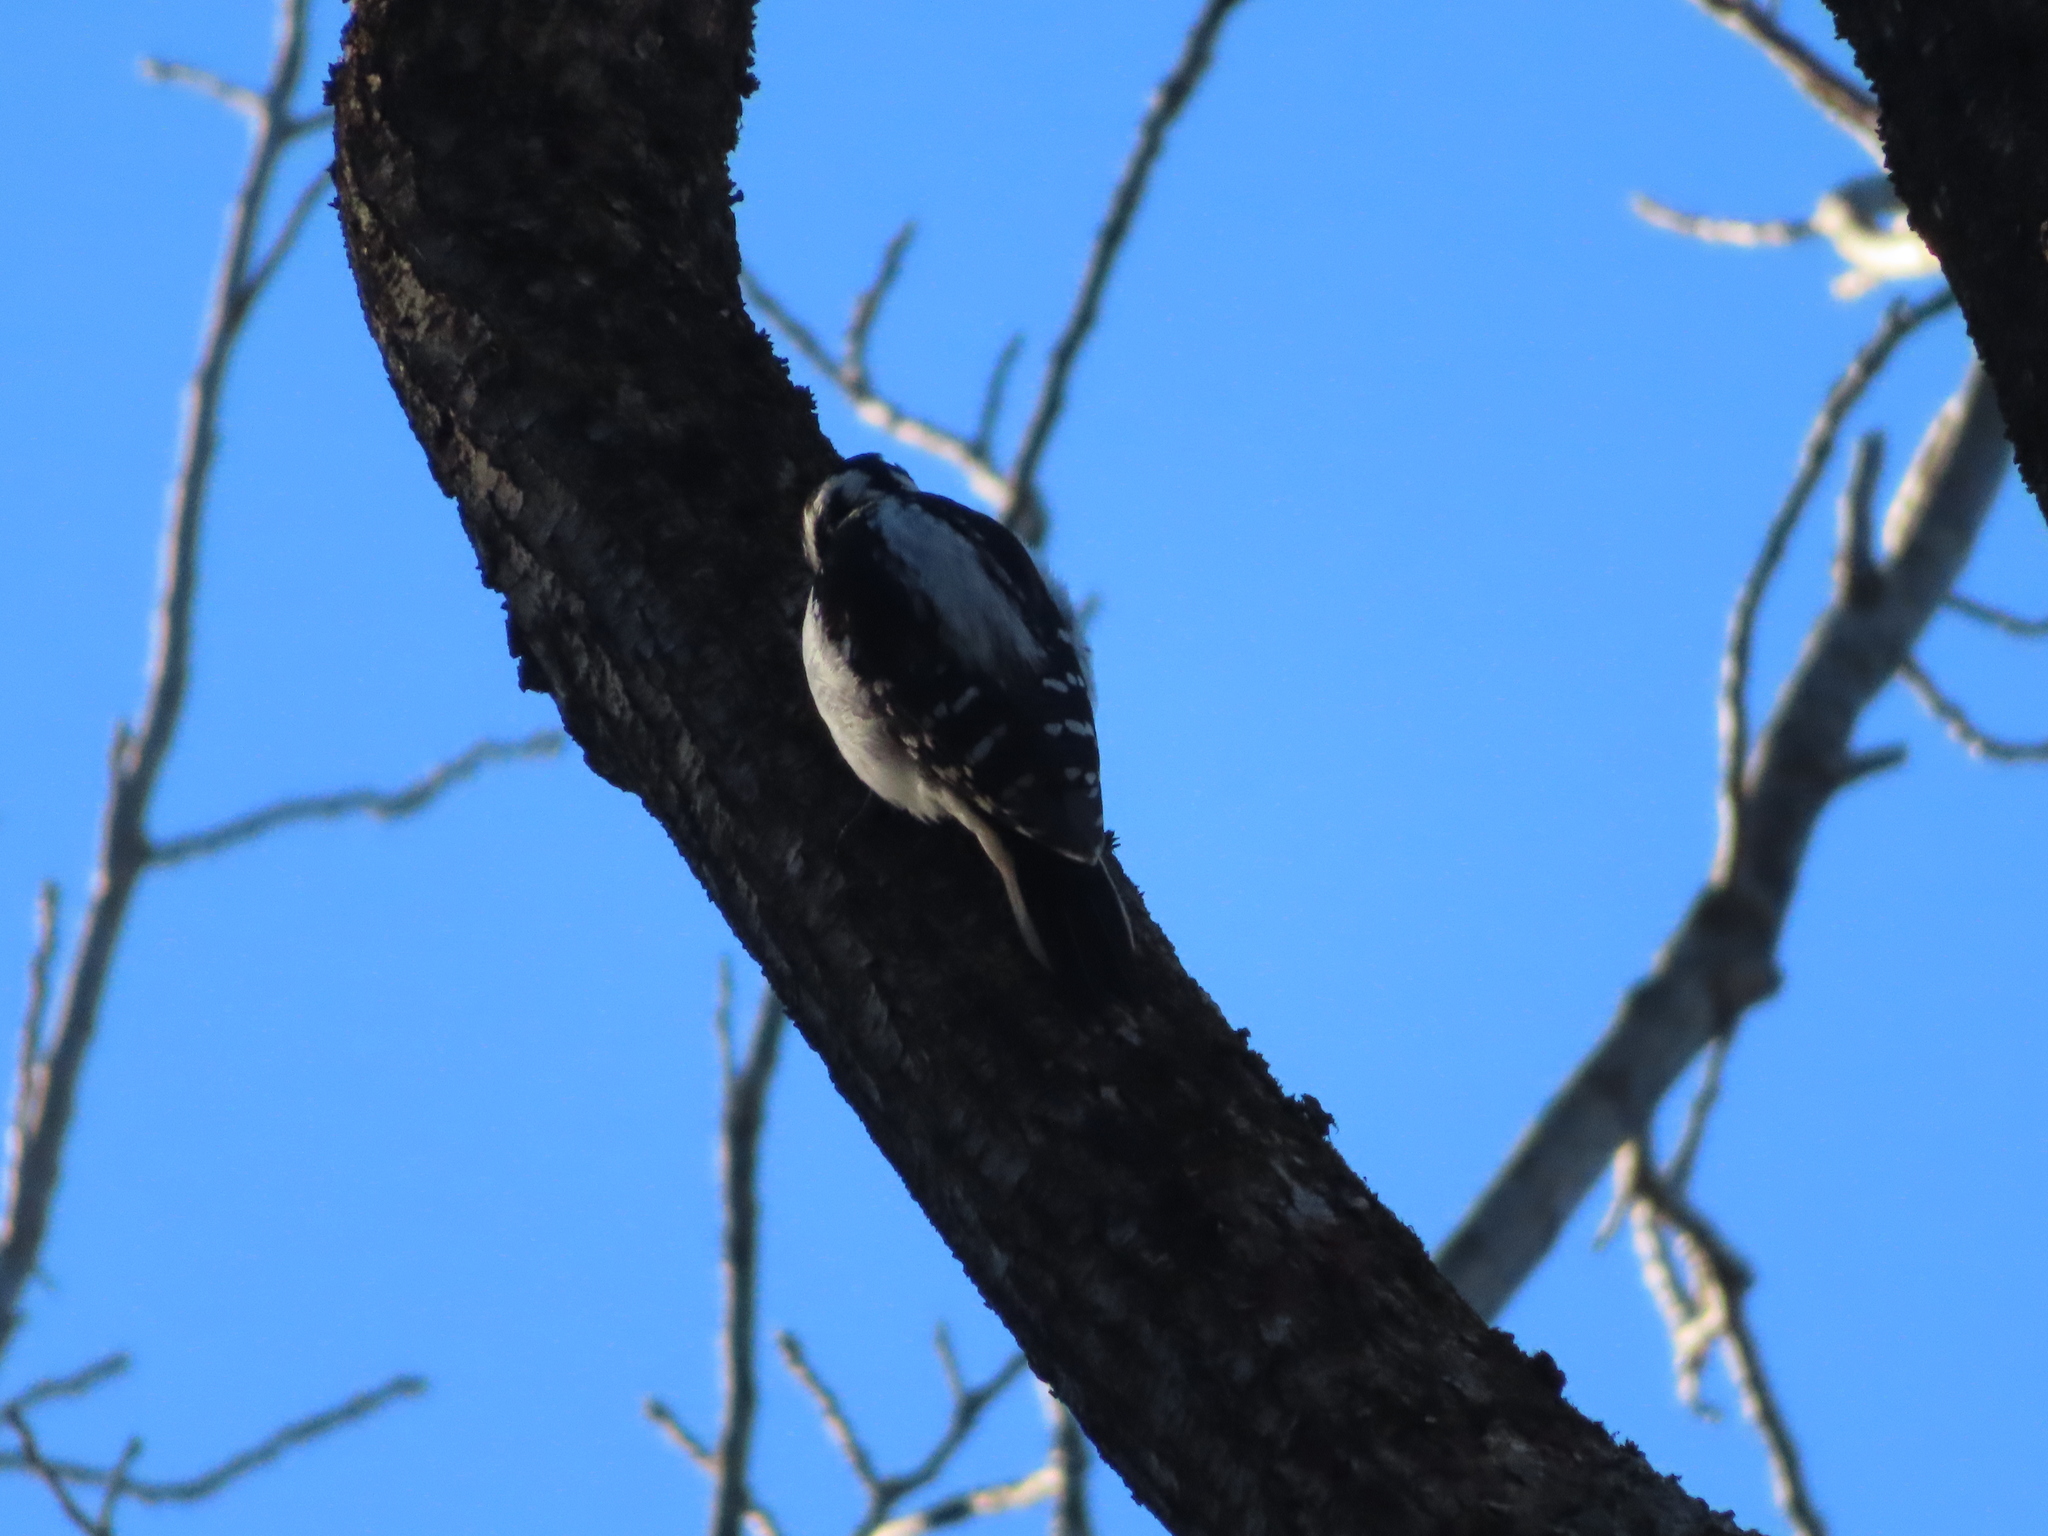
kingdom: Animalia
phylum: Chordata
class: Aves
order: Piciformes
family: Picidae
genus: Leuconotopicus
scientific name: Leuconotopicus villosus
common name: Hairy woodpecker
